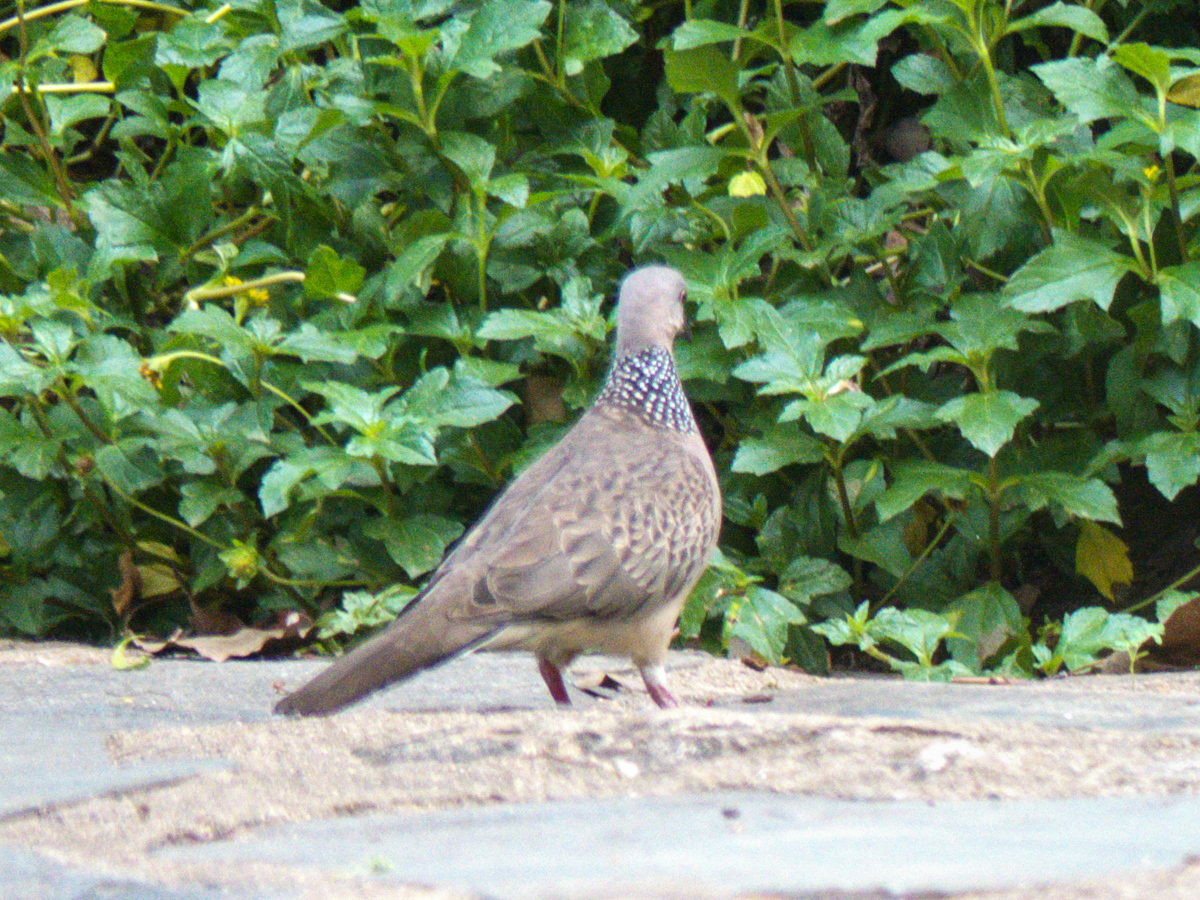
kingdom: Animalia
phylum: Chordata
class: Aves
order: Columbiformes
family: Columbidae
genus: Spilopelia
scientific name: Spilopelia chinensis
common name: Spotted dove
